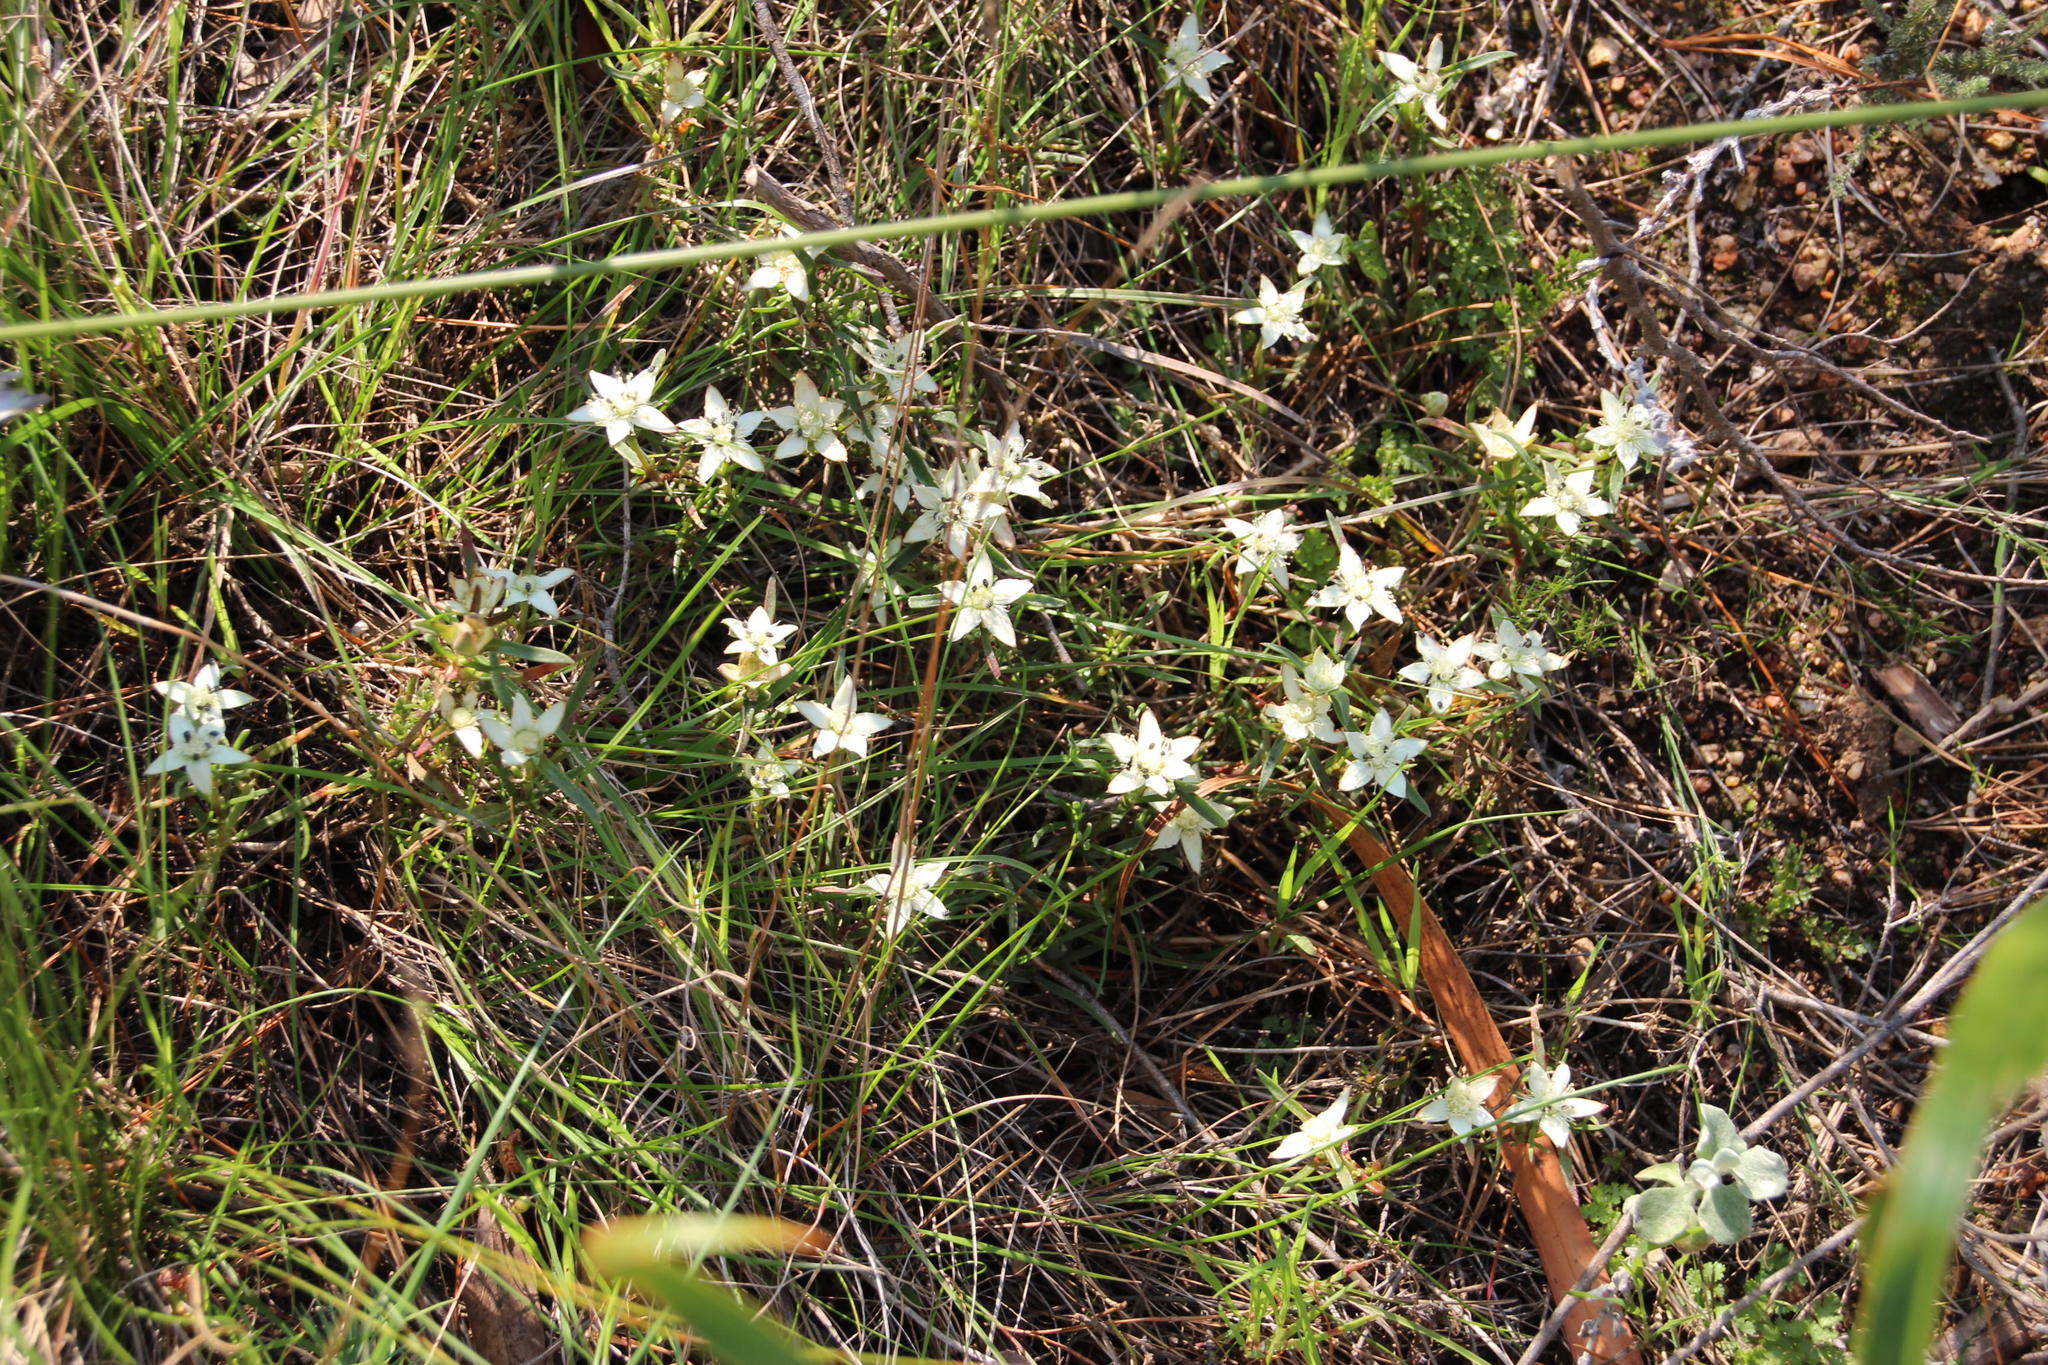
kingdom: Plantae
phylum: Tracheophyta
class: Magnoliopsida
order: Caryophyllales
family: Aizoaceae
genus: Aizoon
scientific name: Aizoon sarmentosum
